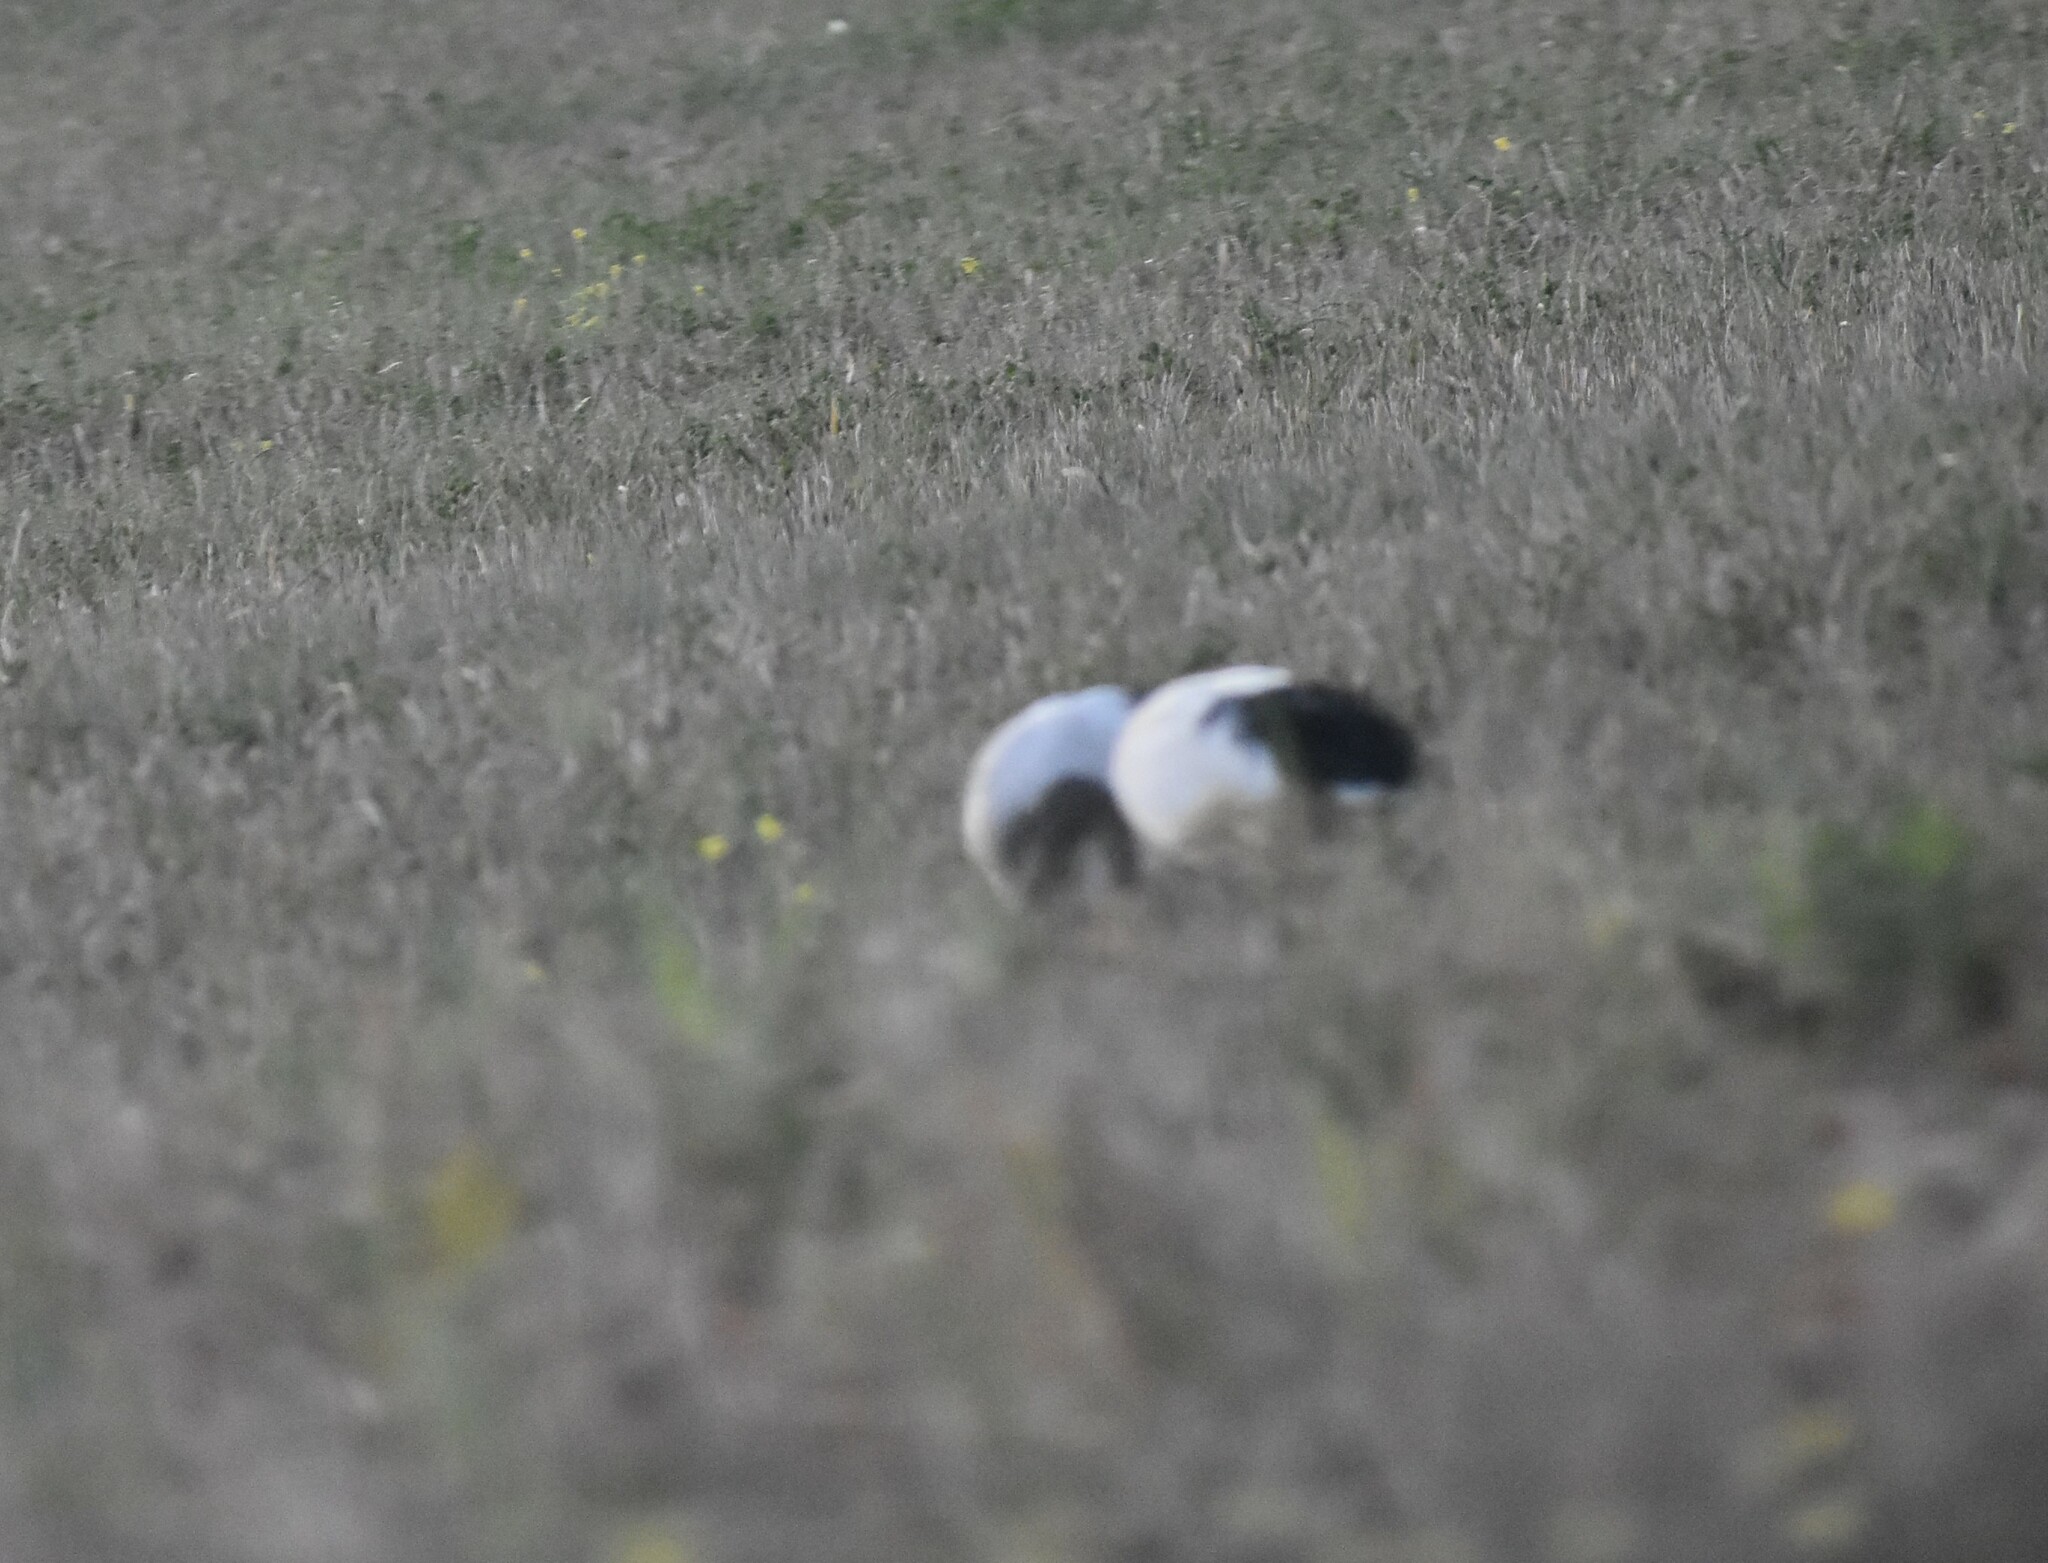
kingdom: Animalia
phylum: Chordata
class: Aves
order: Pelecaniformes
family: Threskiornithidae
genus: Threskiornis
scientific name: Threskiornis aethiopicus
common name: Sacred ibis
